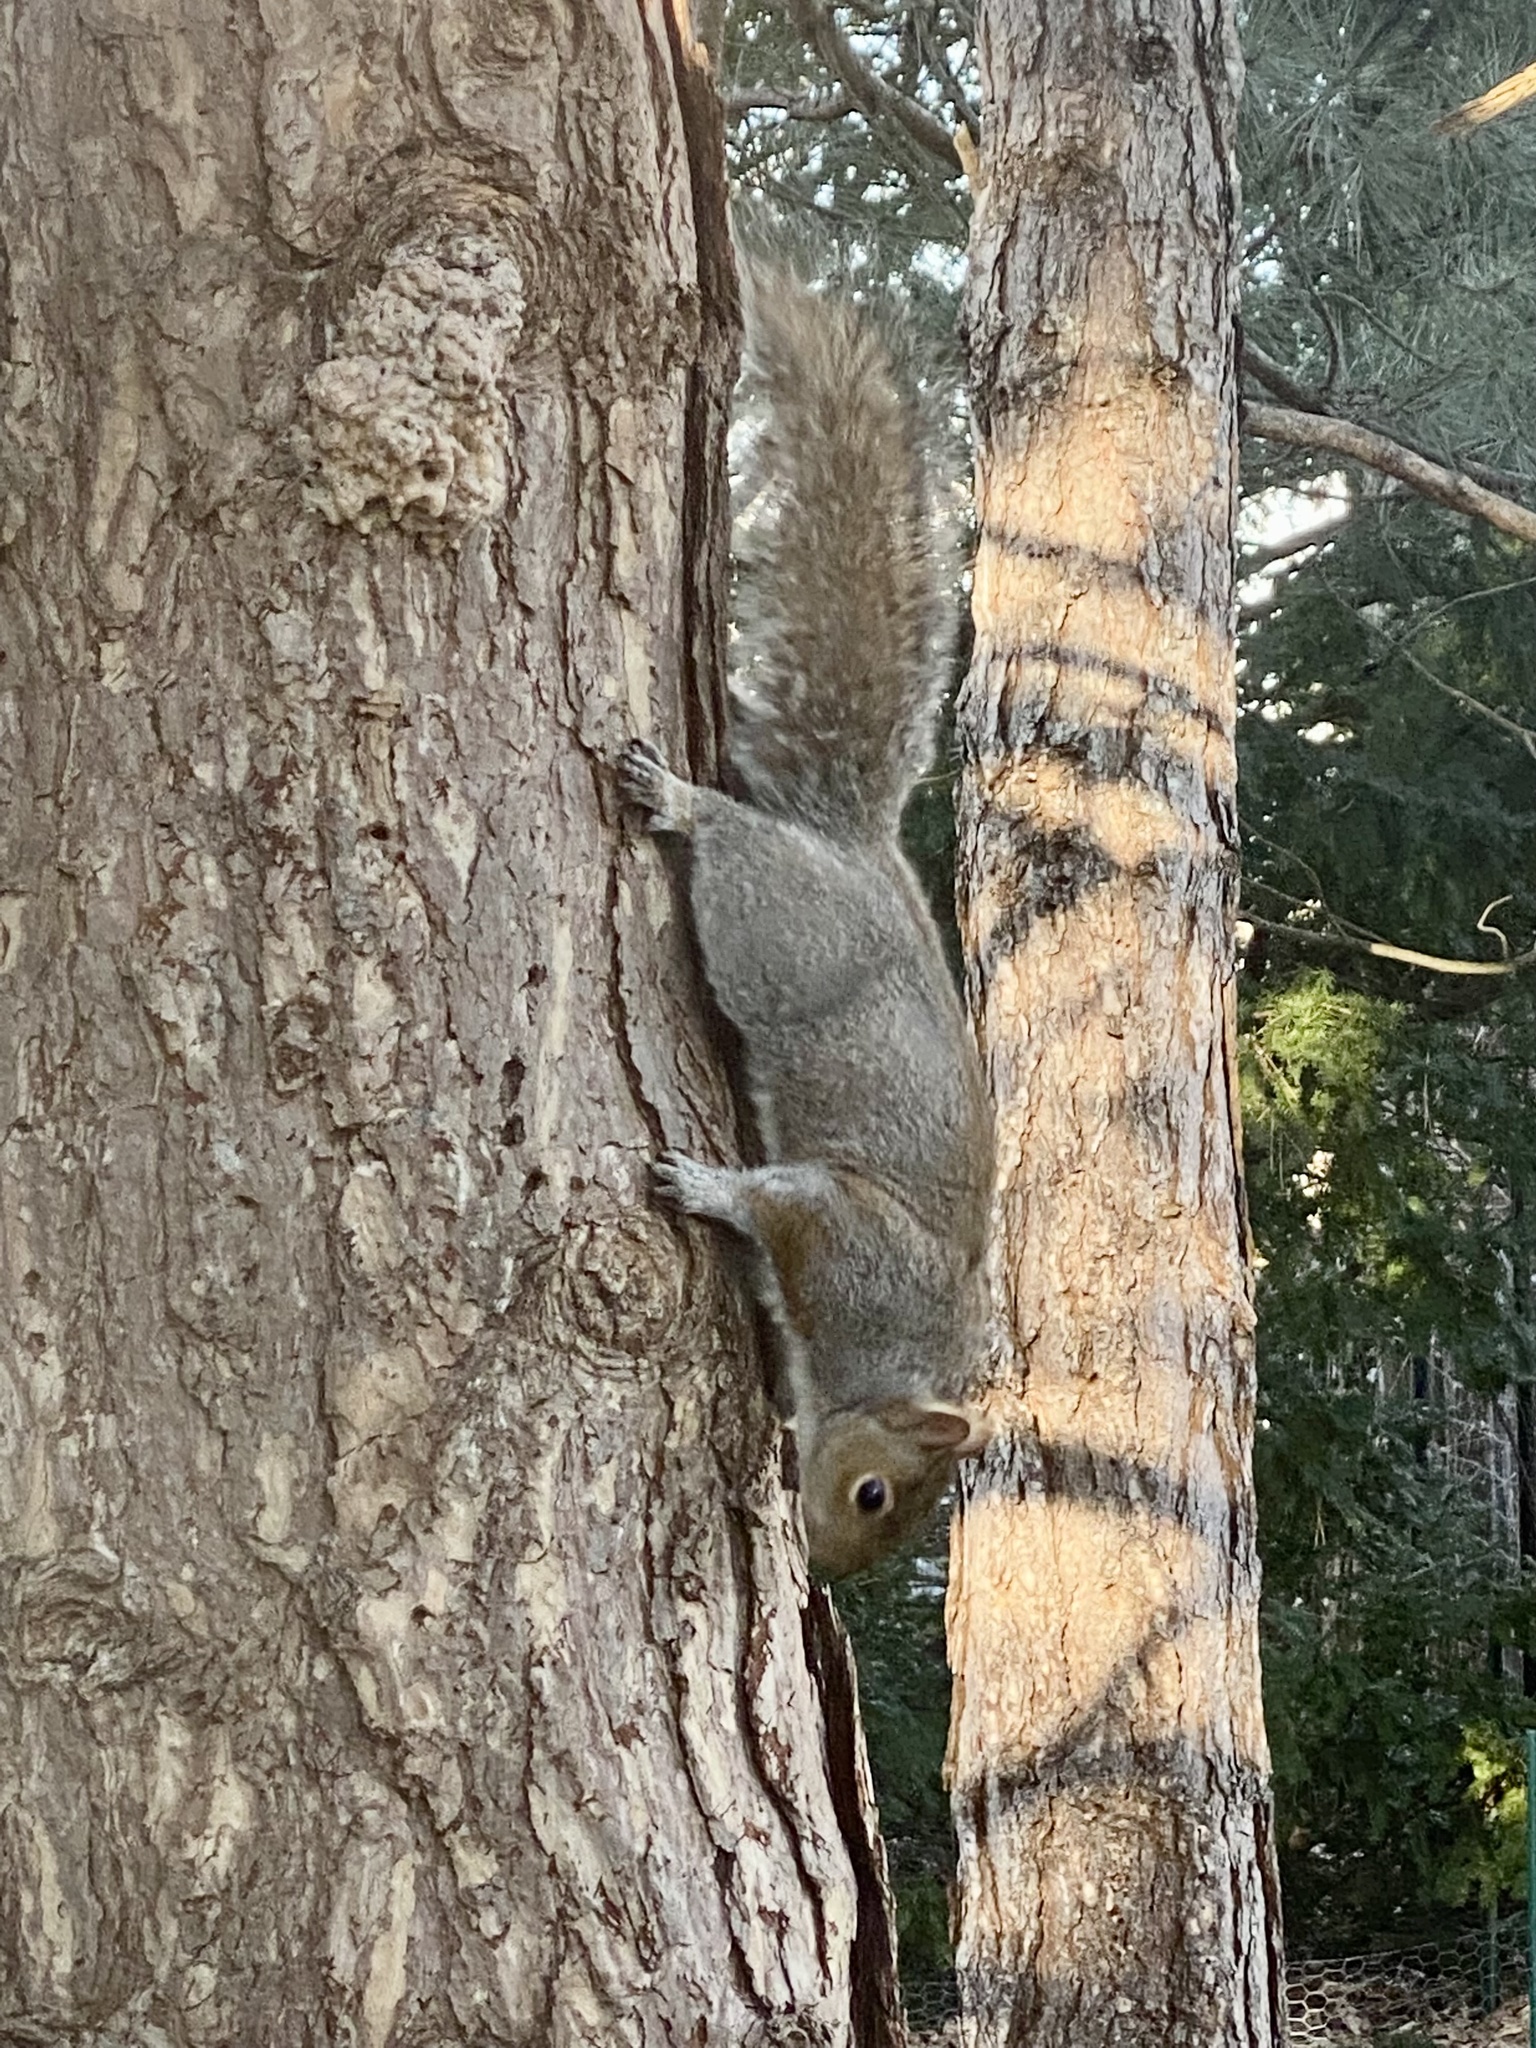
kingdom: Animalia
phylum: Chordata
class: Mammalia
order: Rodentia
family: Sciuridae
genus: Sciurus
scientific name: Sciurus carolinensis
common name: Eastern gray squirrel
